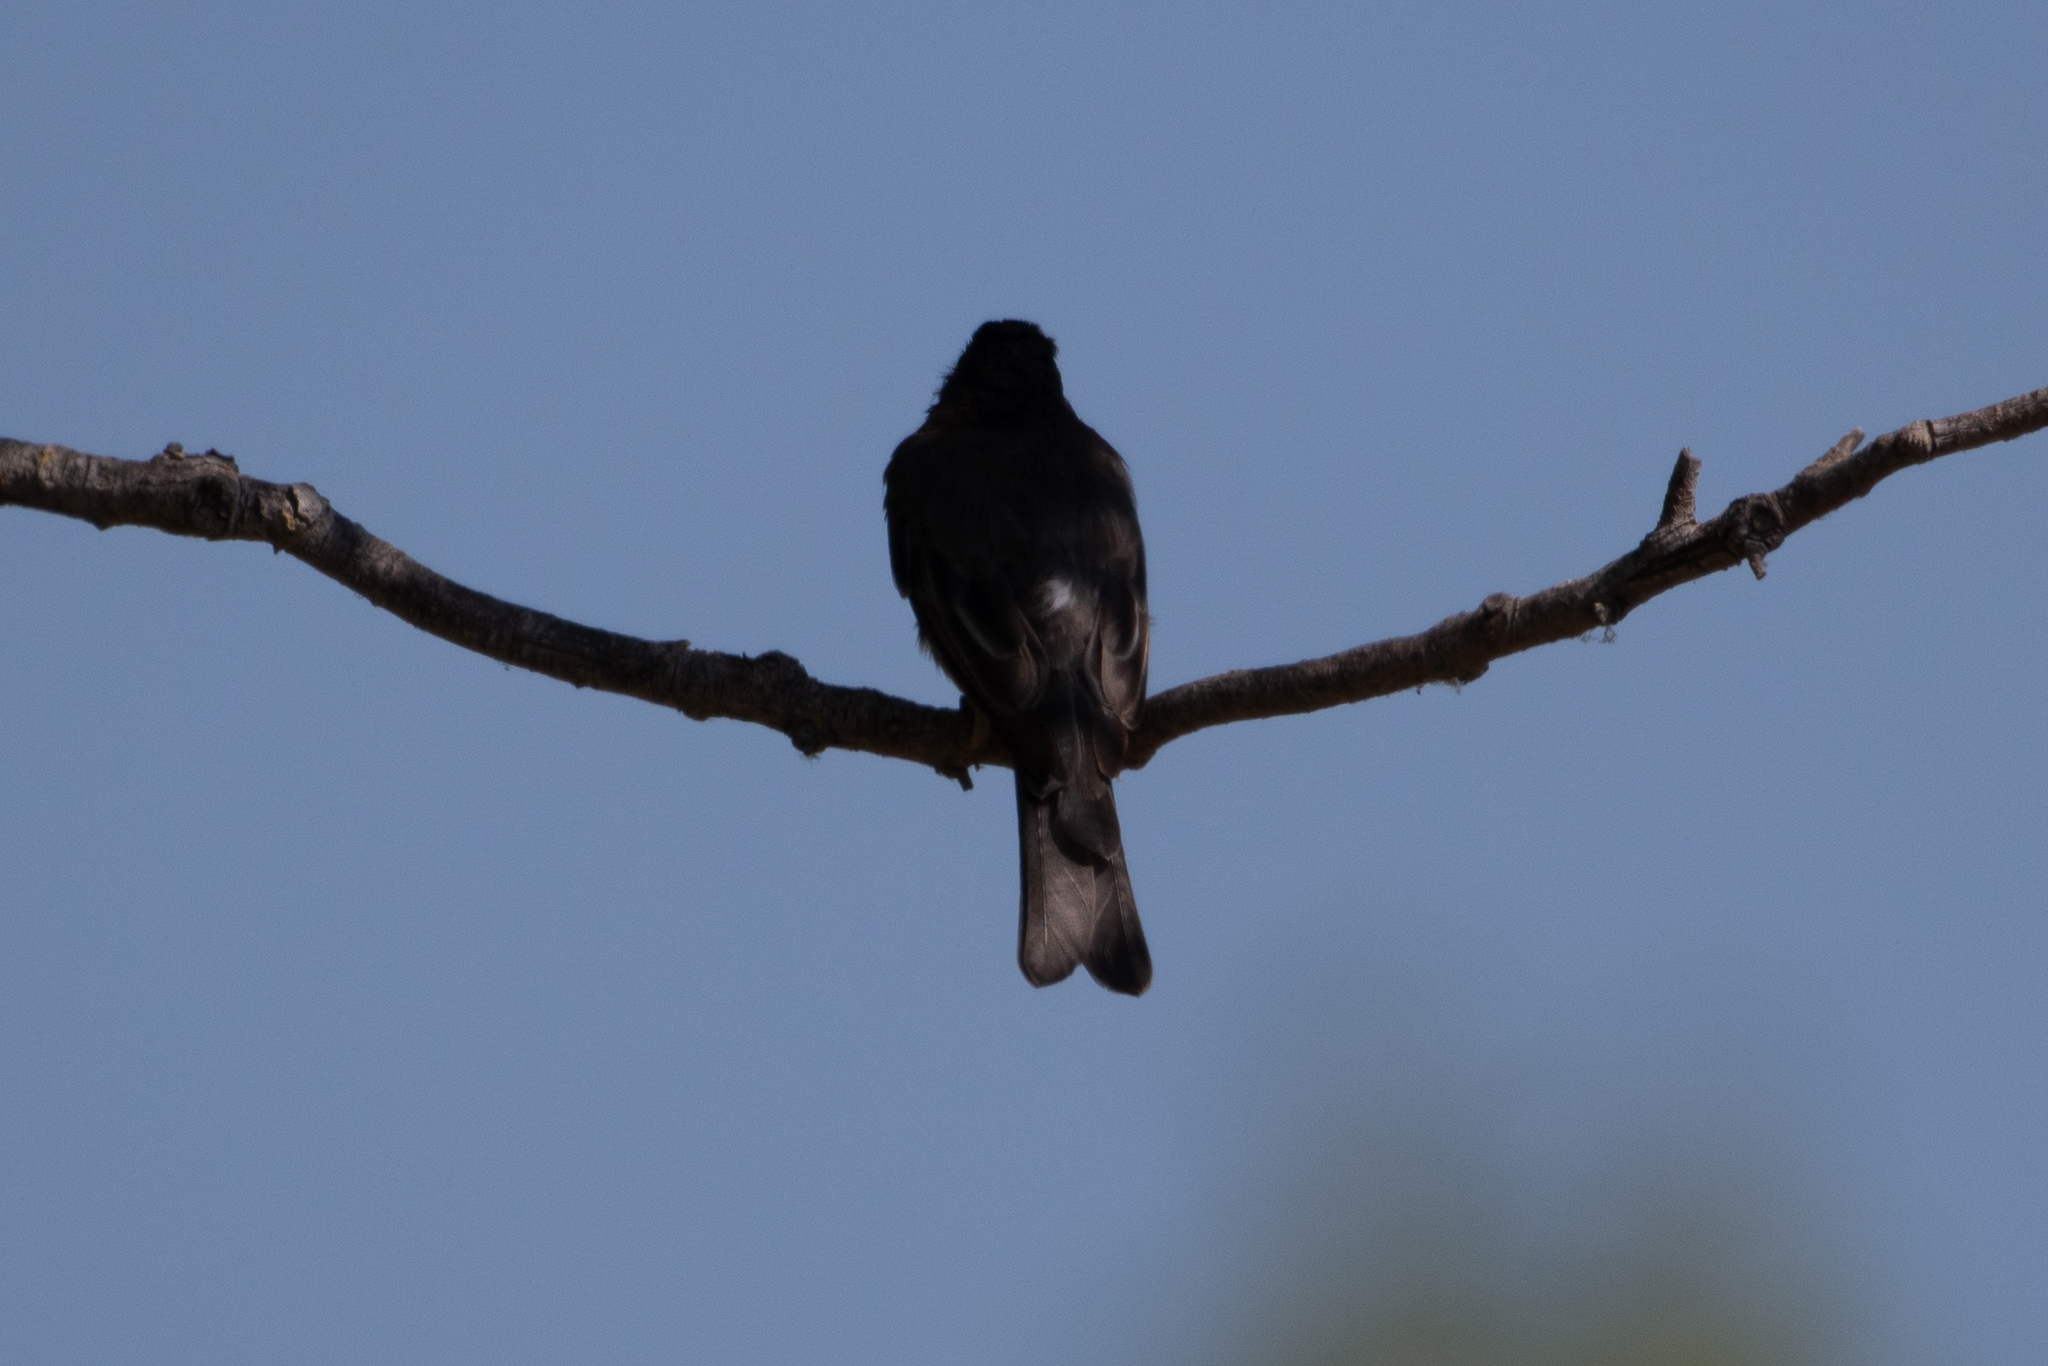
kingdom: Animalia
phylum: Chordata
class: Aves
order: Passeriformes
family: Tyrannidae
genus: Sayornis
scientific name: Sayornis nigricans
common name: Black phoebe
